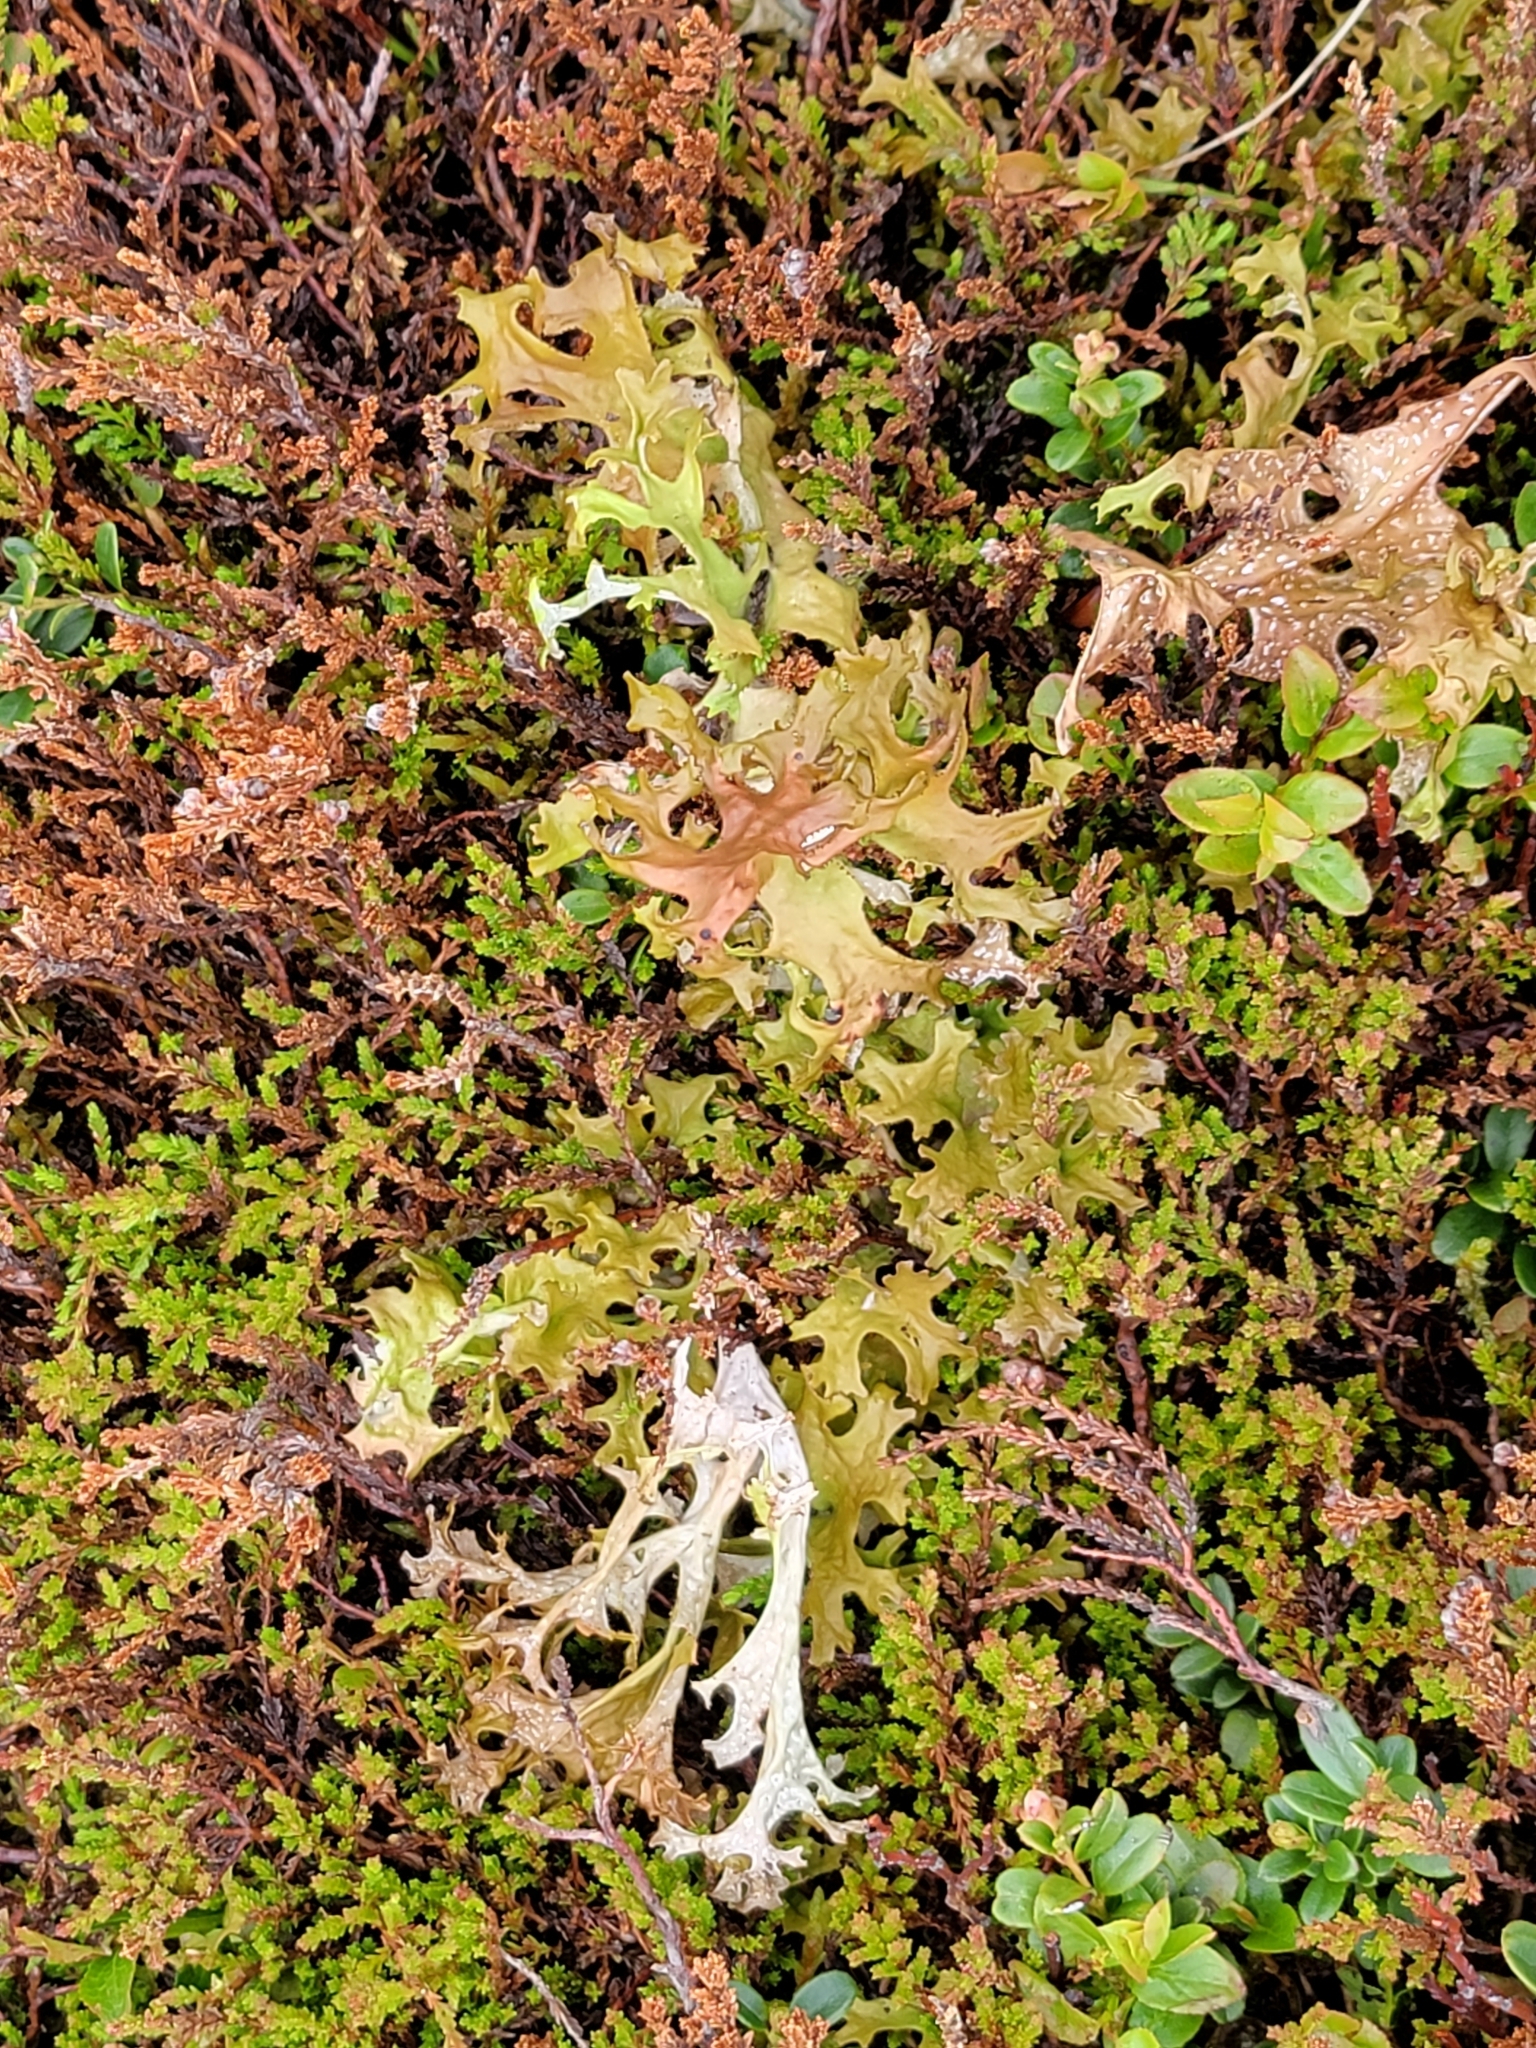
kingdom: Fungi
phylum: Ascomycota
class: Lecanoromycetes
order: Lecanorales
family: Parmeliaceae
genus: Cetraria
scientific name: Cetraria islandica
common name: Iceland lichen
